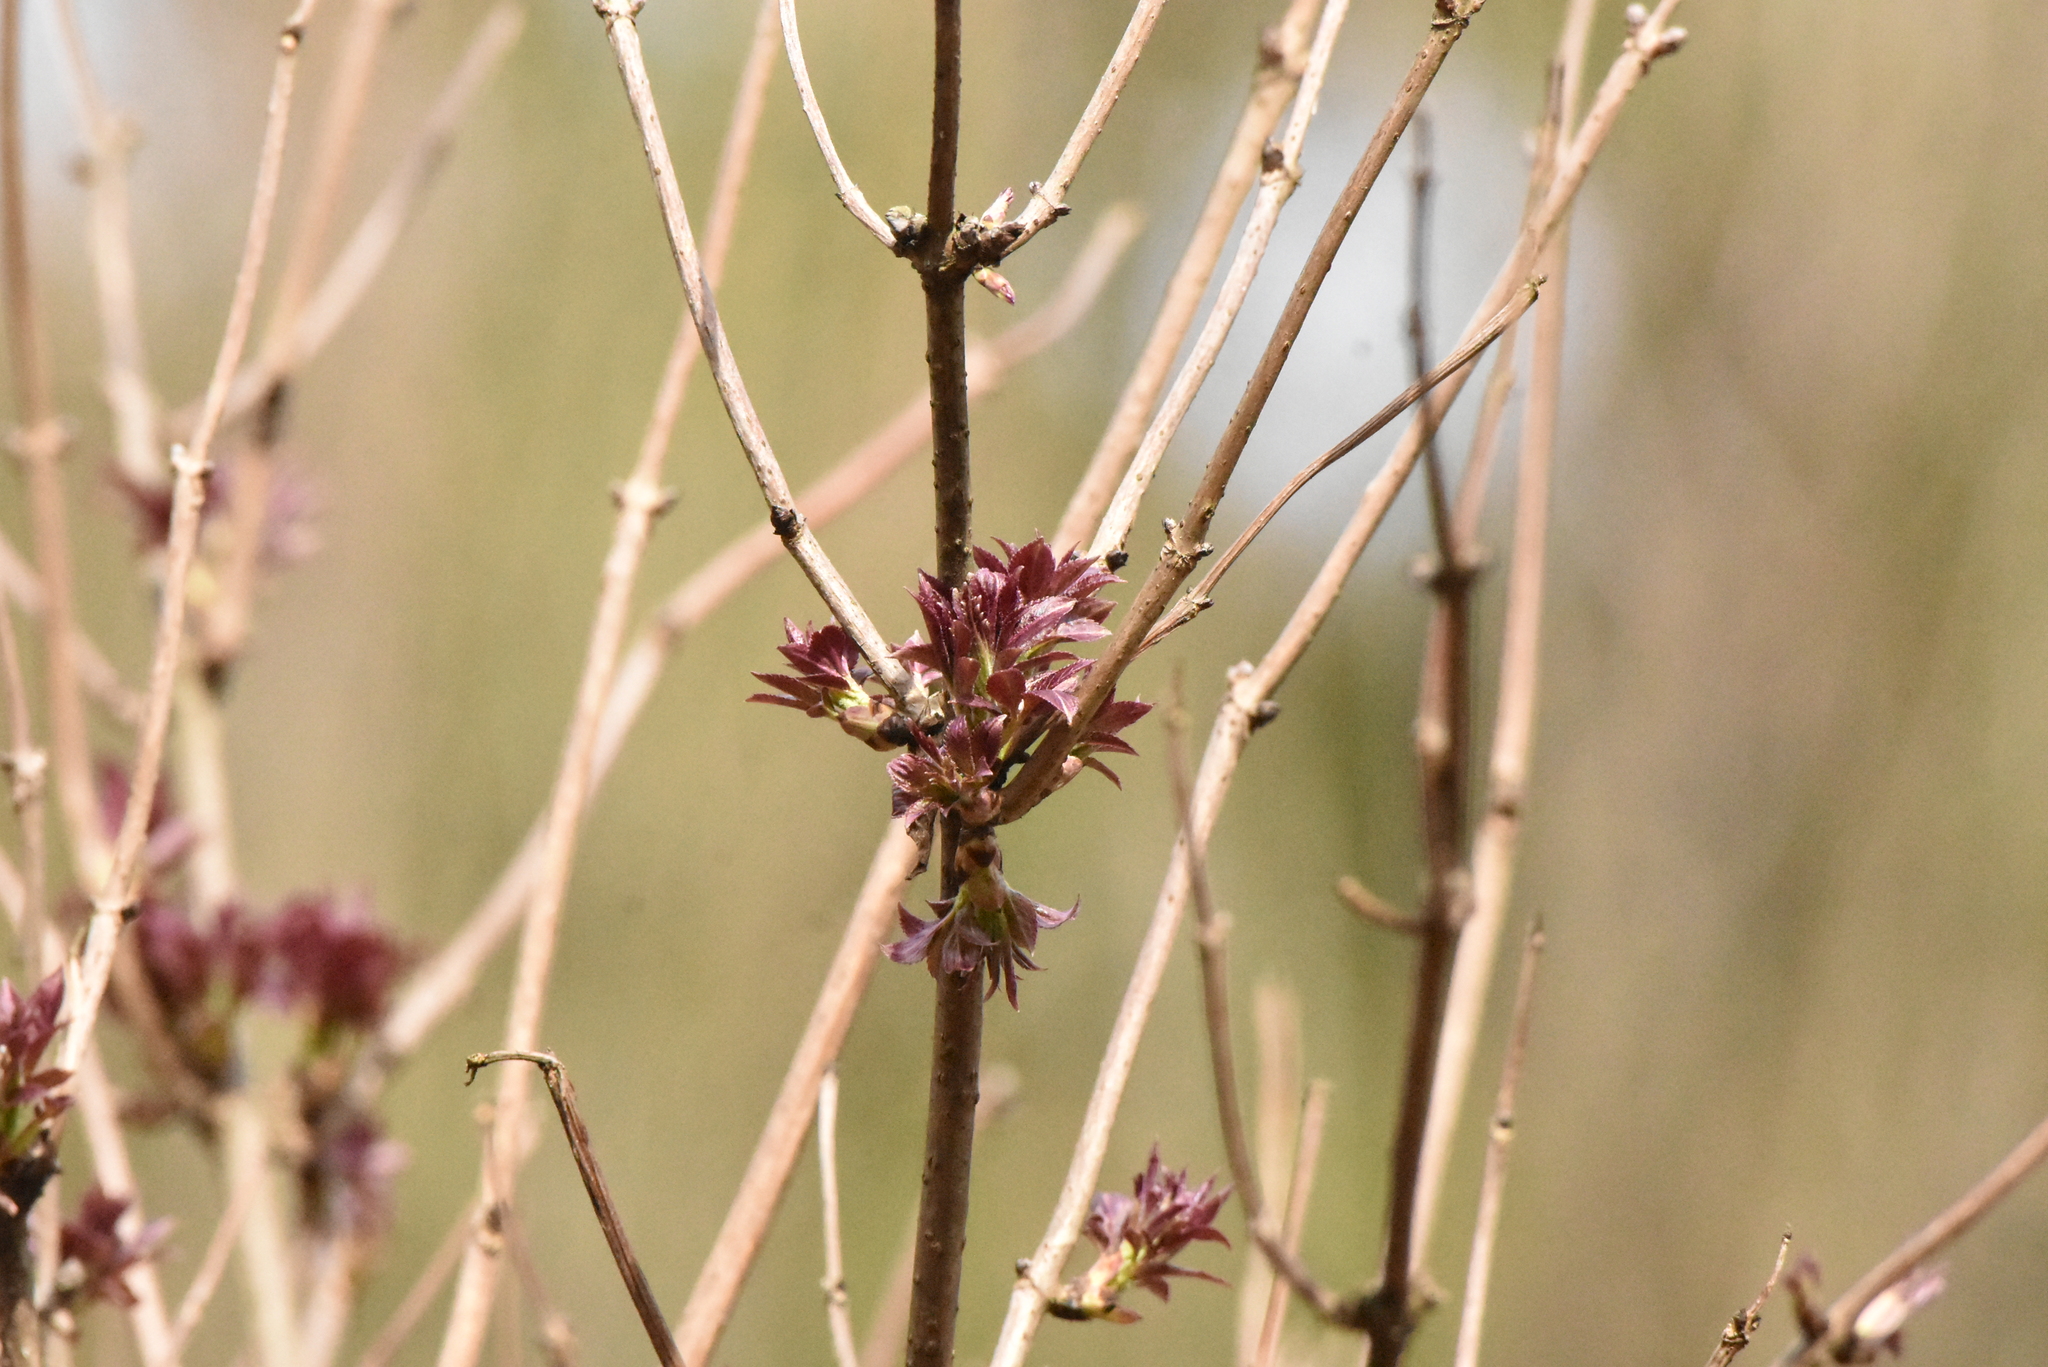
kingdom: Plantae
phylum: Tracheophyta
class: Magnoliopsida
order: Dipsacales
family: Viburnaceae
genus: Sambucus
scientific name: Sambucus racemosa
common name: Red-berried elder
